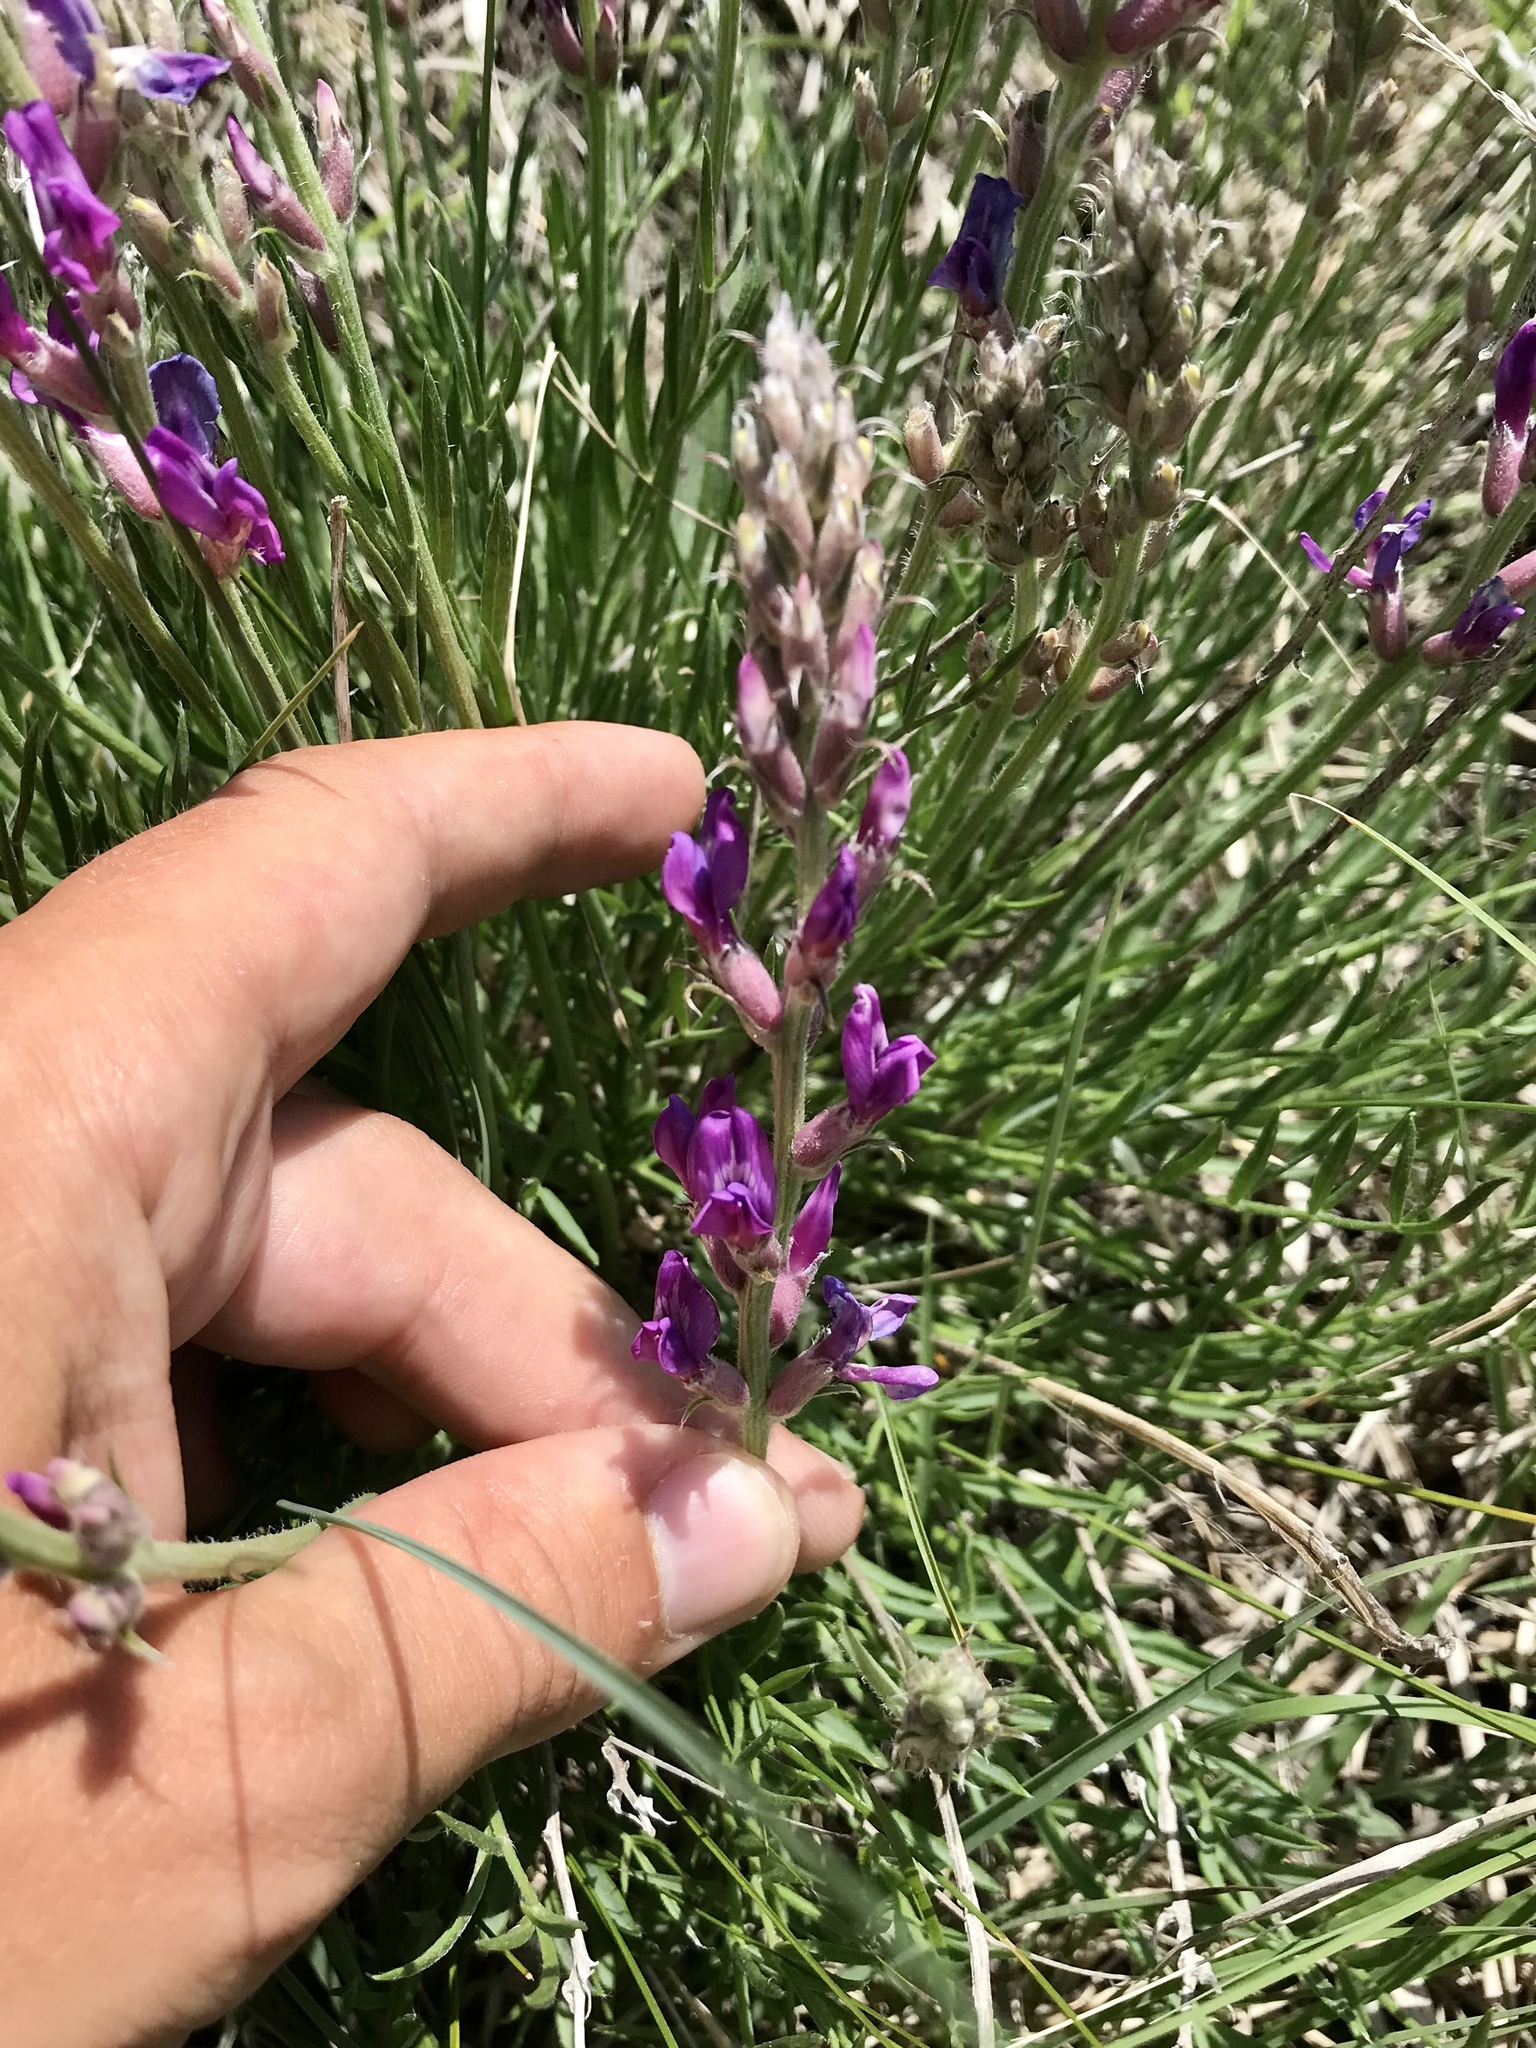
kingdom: Plantae
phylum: Tracheophyta
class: Magnoliopsida
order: Fabales
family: Fabaceae
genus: Oxytropis
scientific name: Oxytropis lambertii
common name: Purple locoweed
